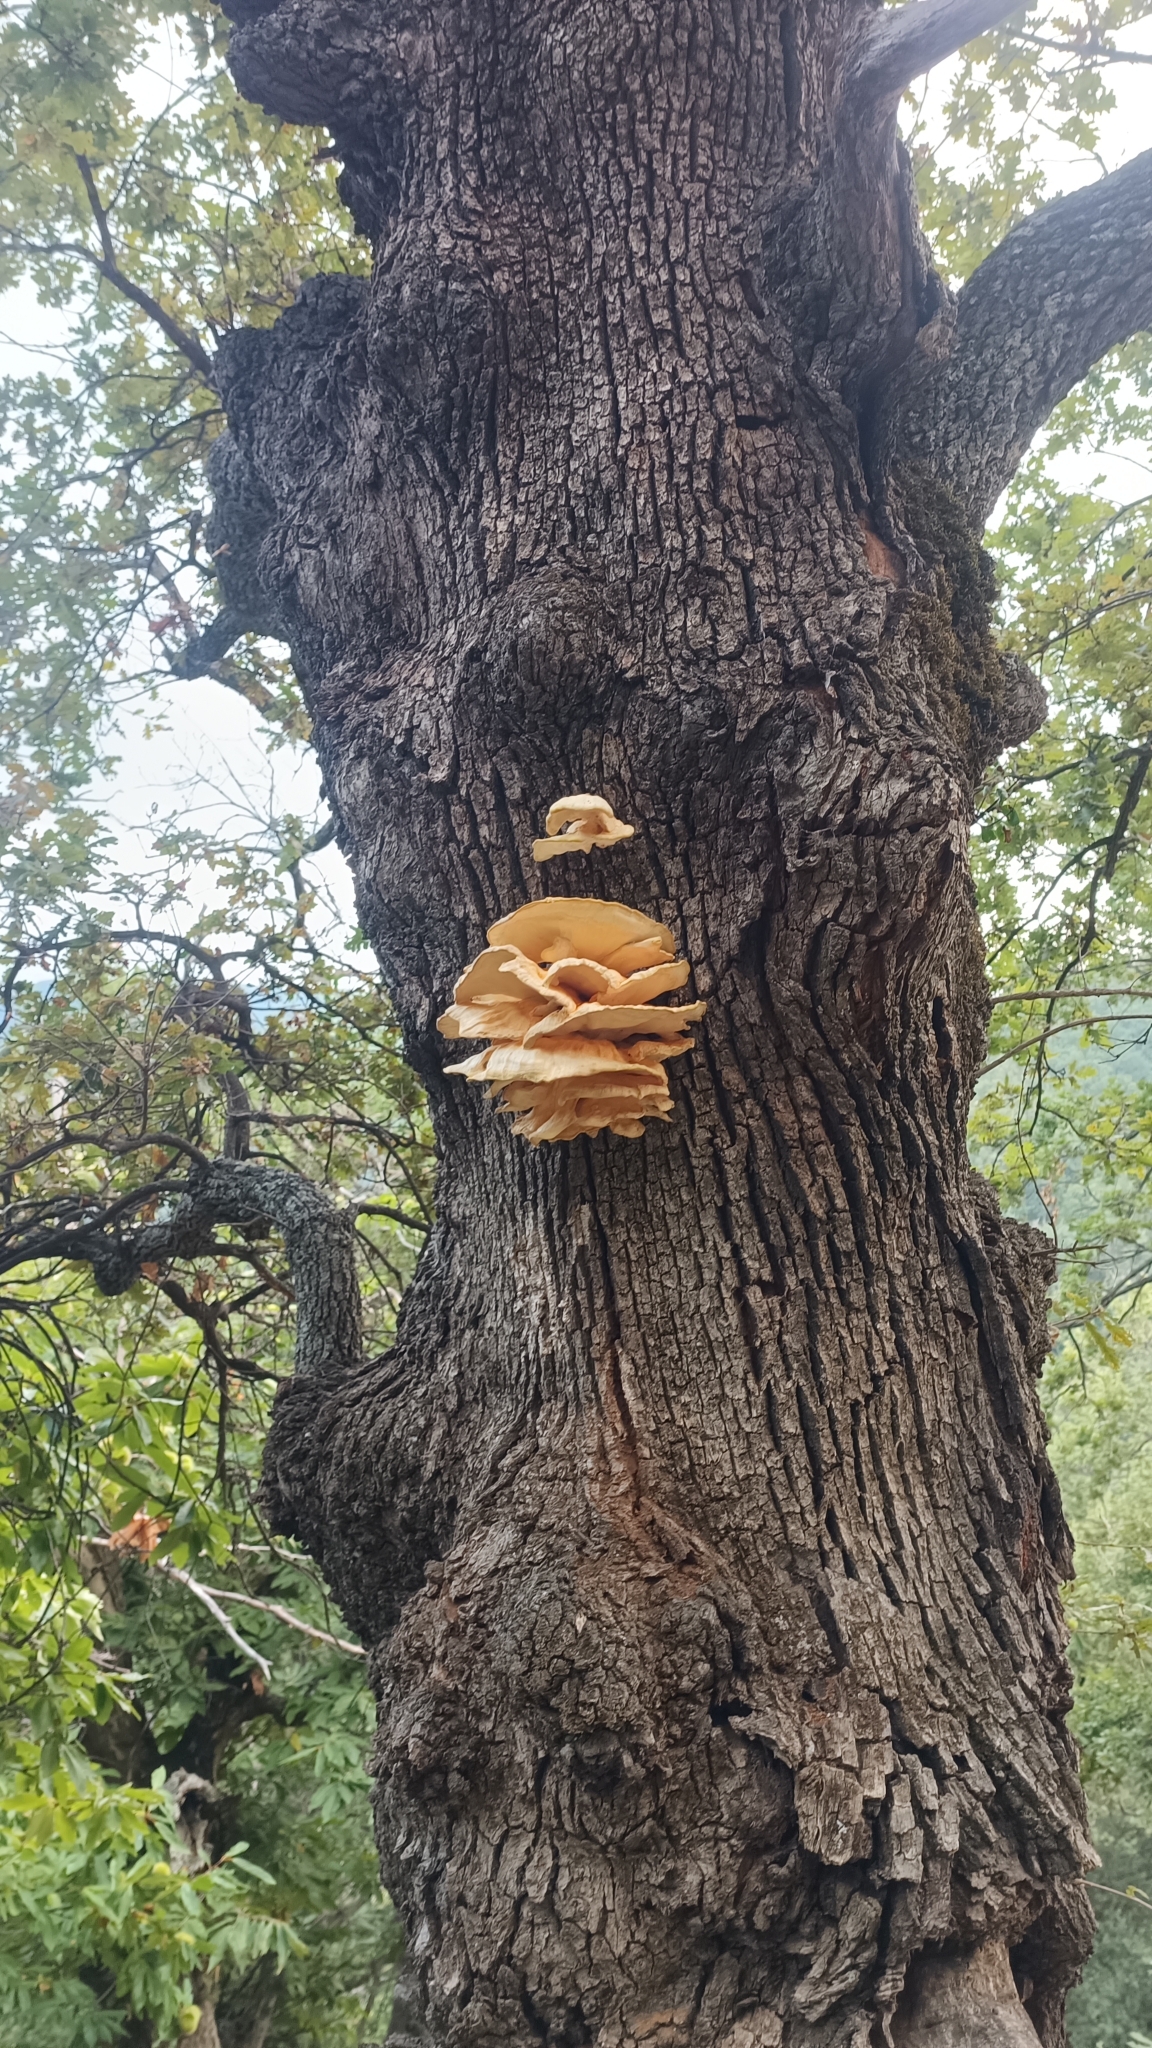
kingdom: Fungi
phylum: Basidiomycota
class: Agaricomycetes
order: Polyporales
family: Laetiporaceae
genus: Laetiporus
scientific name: Laetiporus sulphureus
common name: Chicken of the woods
